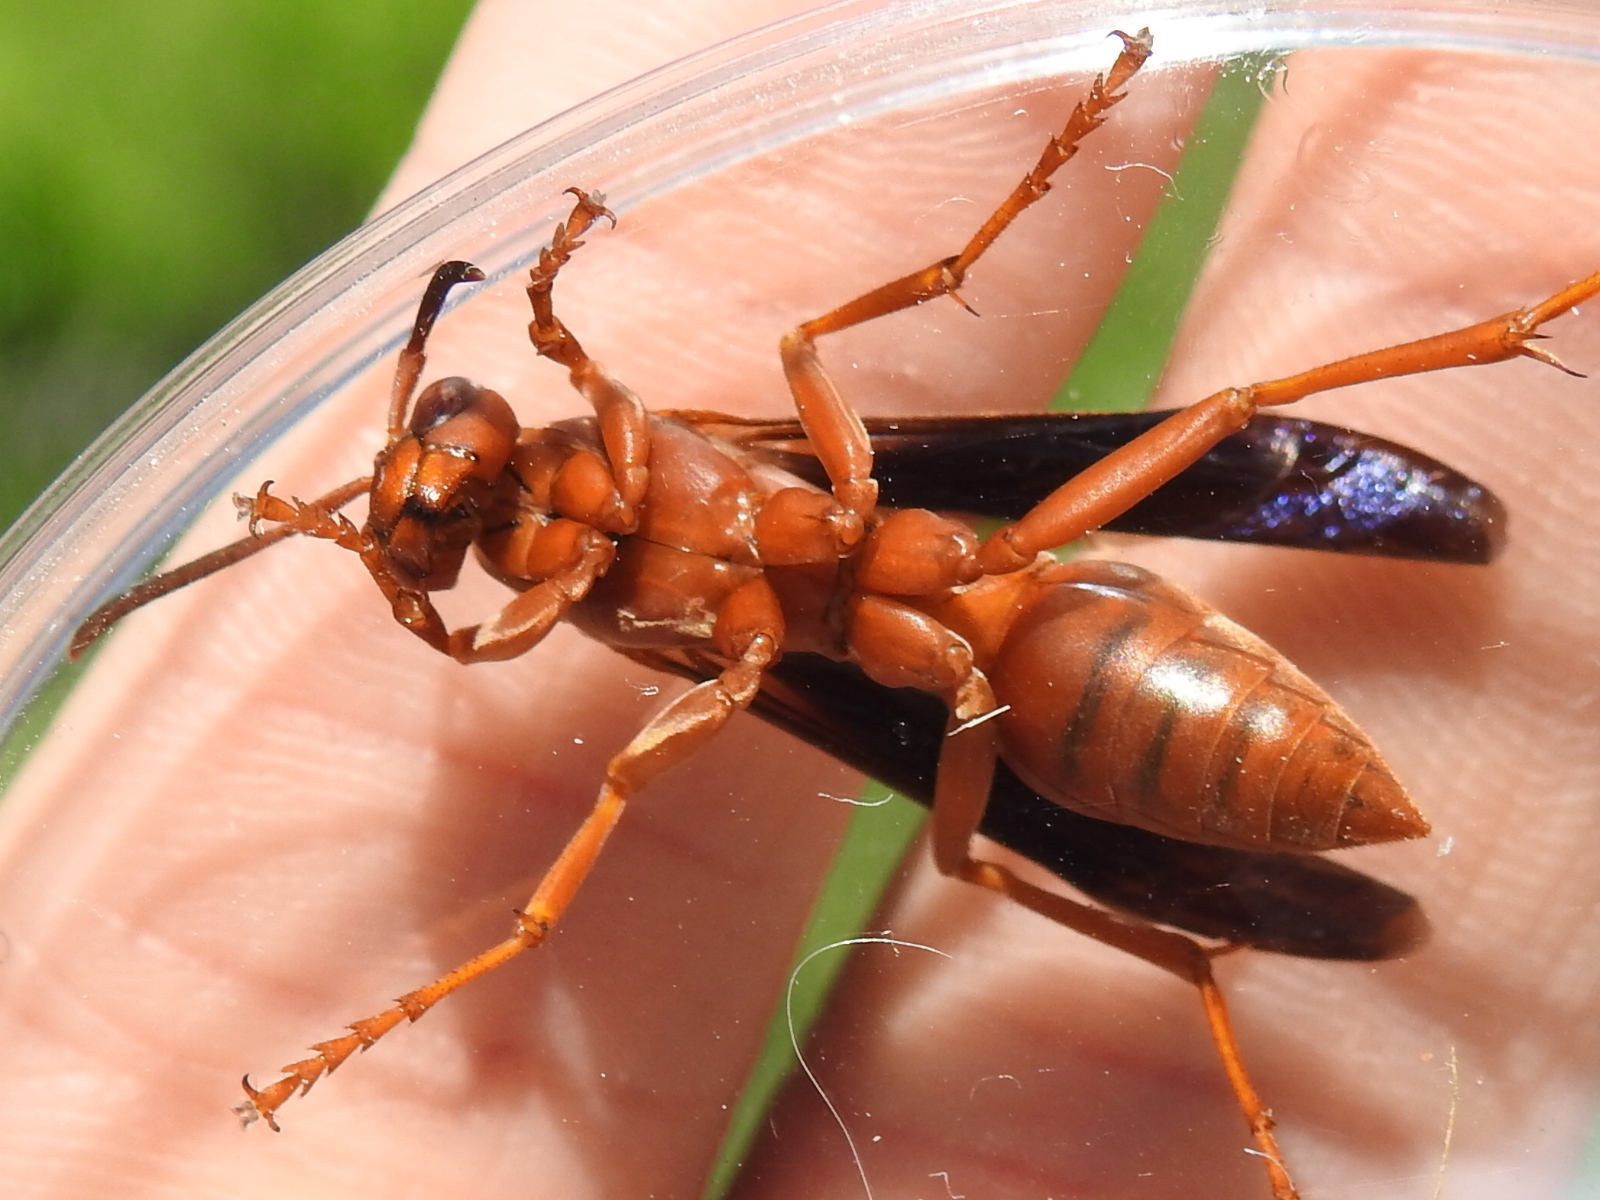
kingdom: Animalia
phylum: Arthropoda
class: Insecta
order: Hymenoptera
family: Vespidae
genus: Fuscopolistes
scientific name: Fuscopolistes
